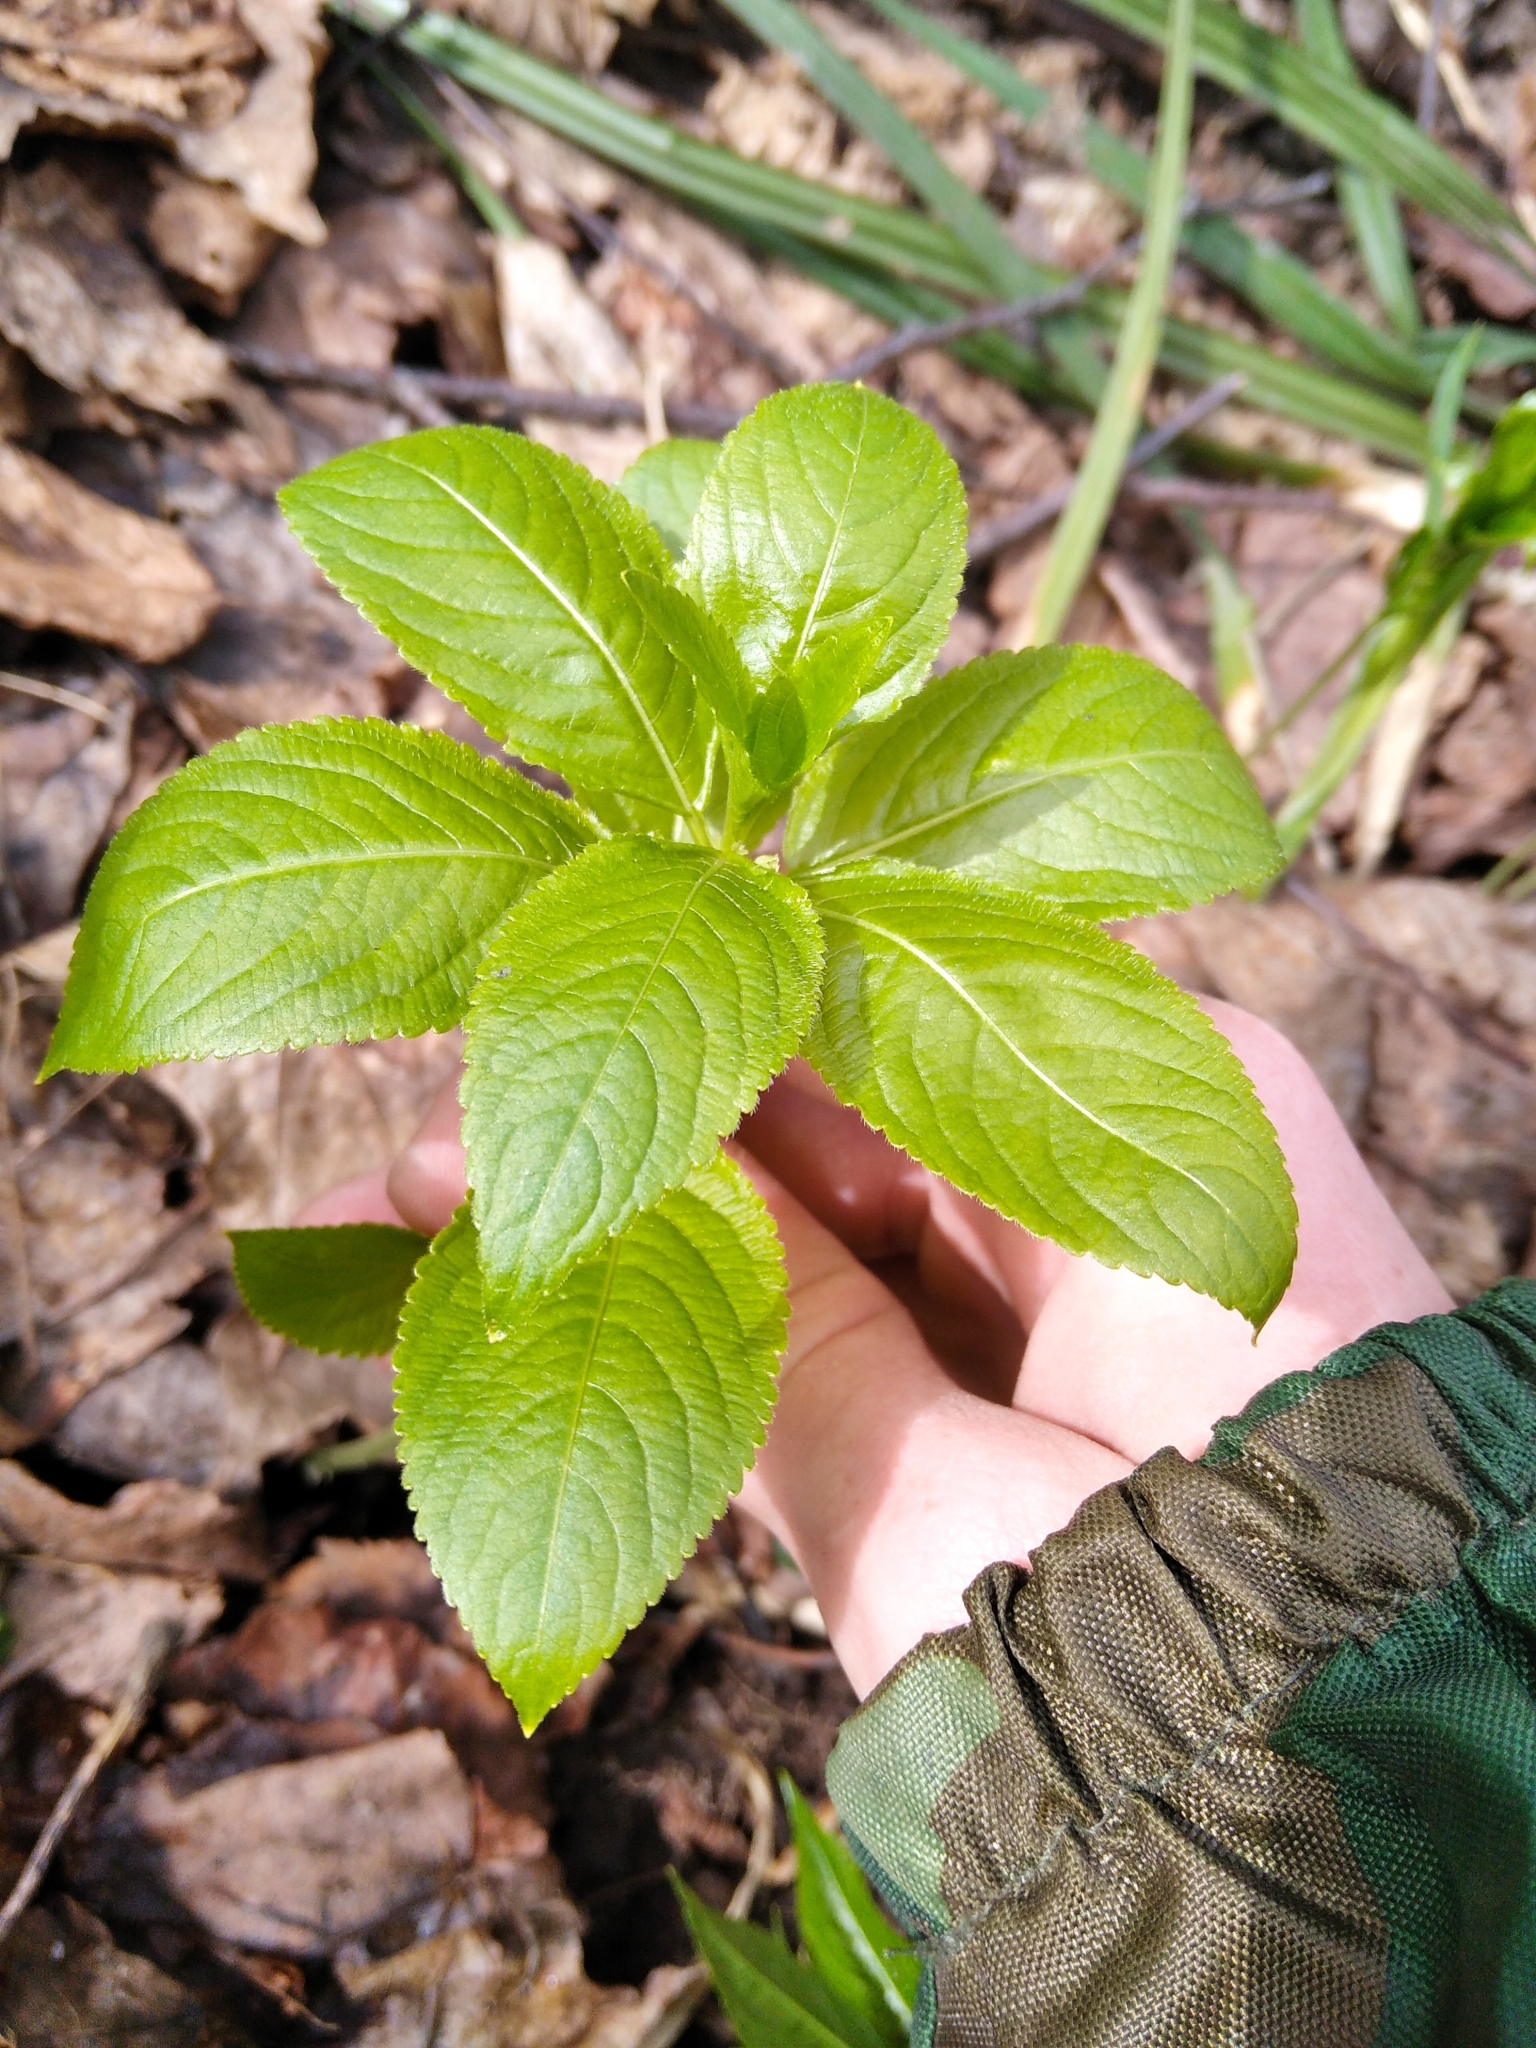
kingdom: Plantae
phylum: Tracheophyta
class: Magnoliopsida
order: Malpighiales
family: Euphorbiaceae
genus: Mercurialis
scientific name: Mercurialis perennis
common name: Dog mercury
